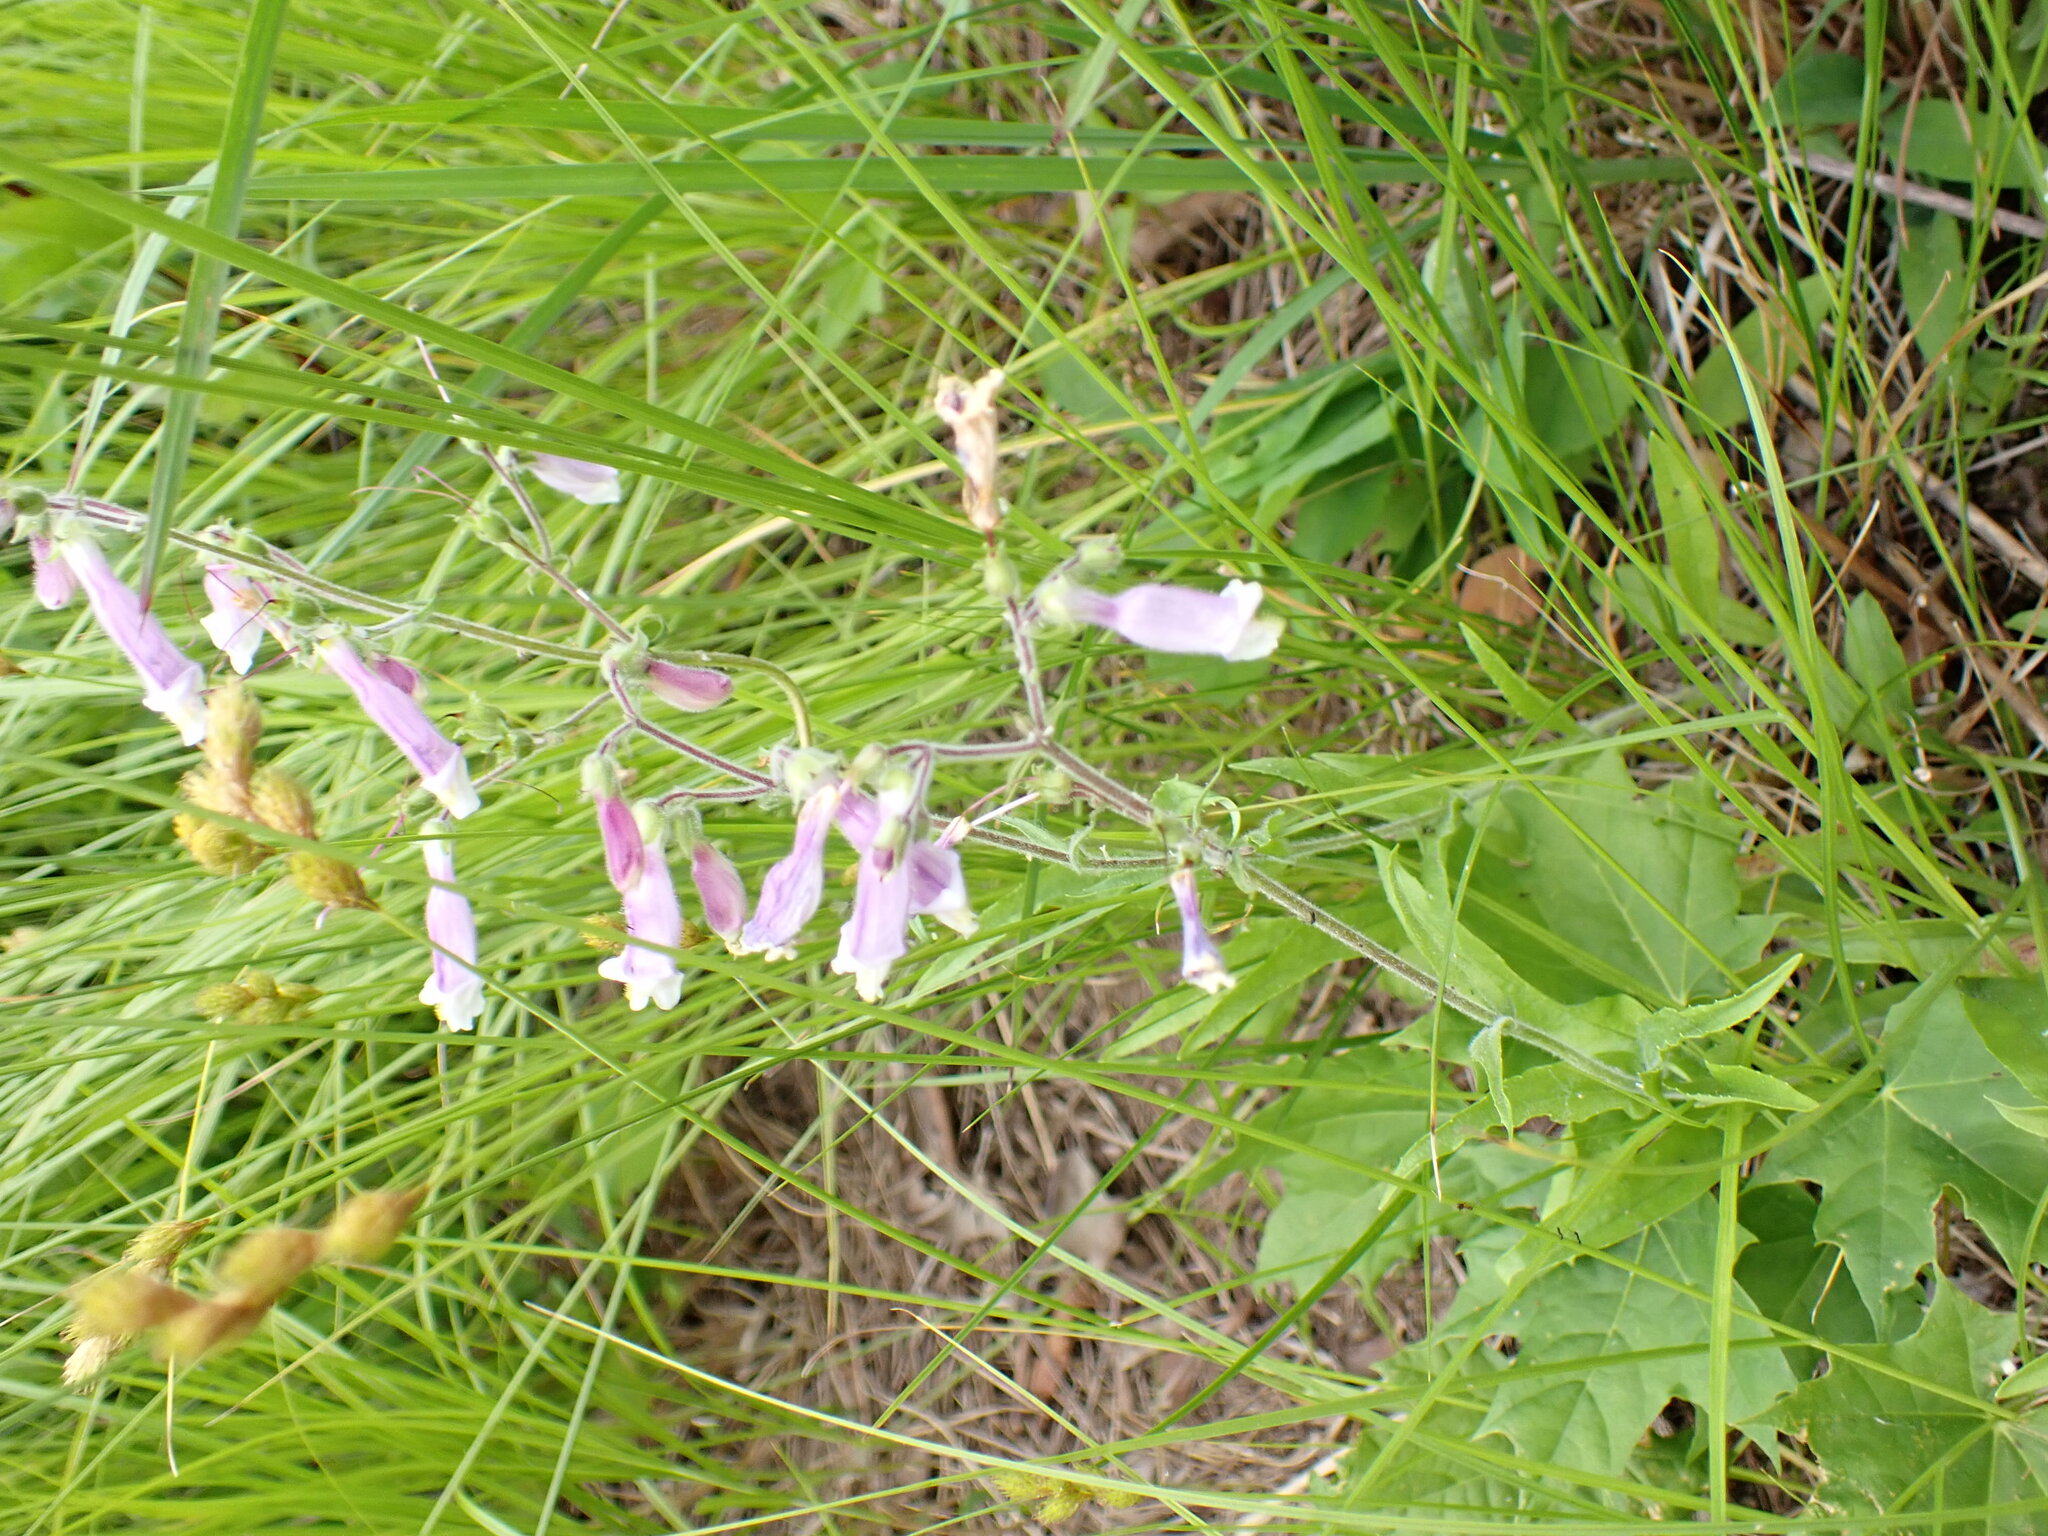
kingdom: Plantae
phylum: Tracheophyta
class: Magnoliopsida
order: Lamiales
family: Plantaginaceae
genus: Penstemon
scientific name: Penstemon hirsutus
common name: Hairy beardtongue
